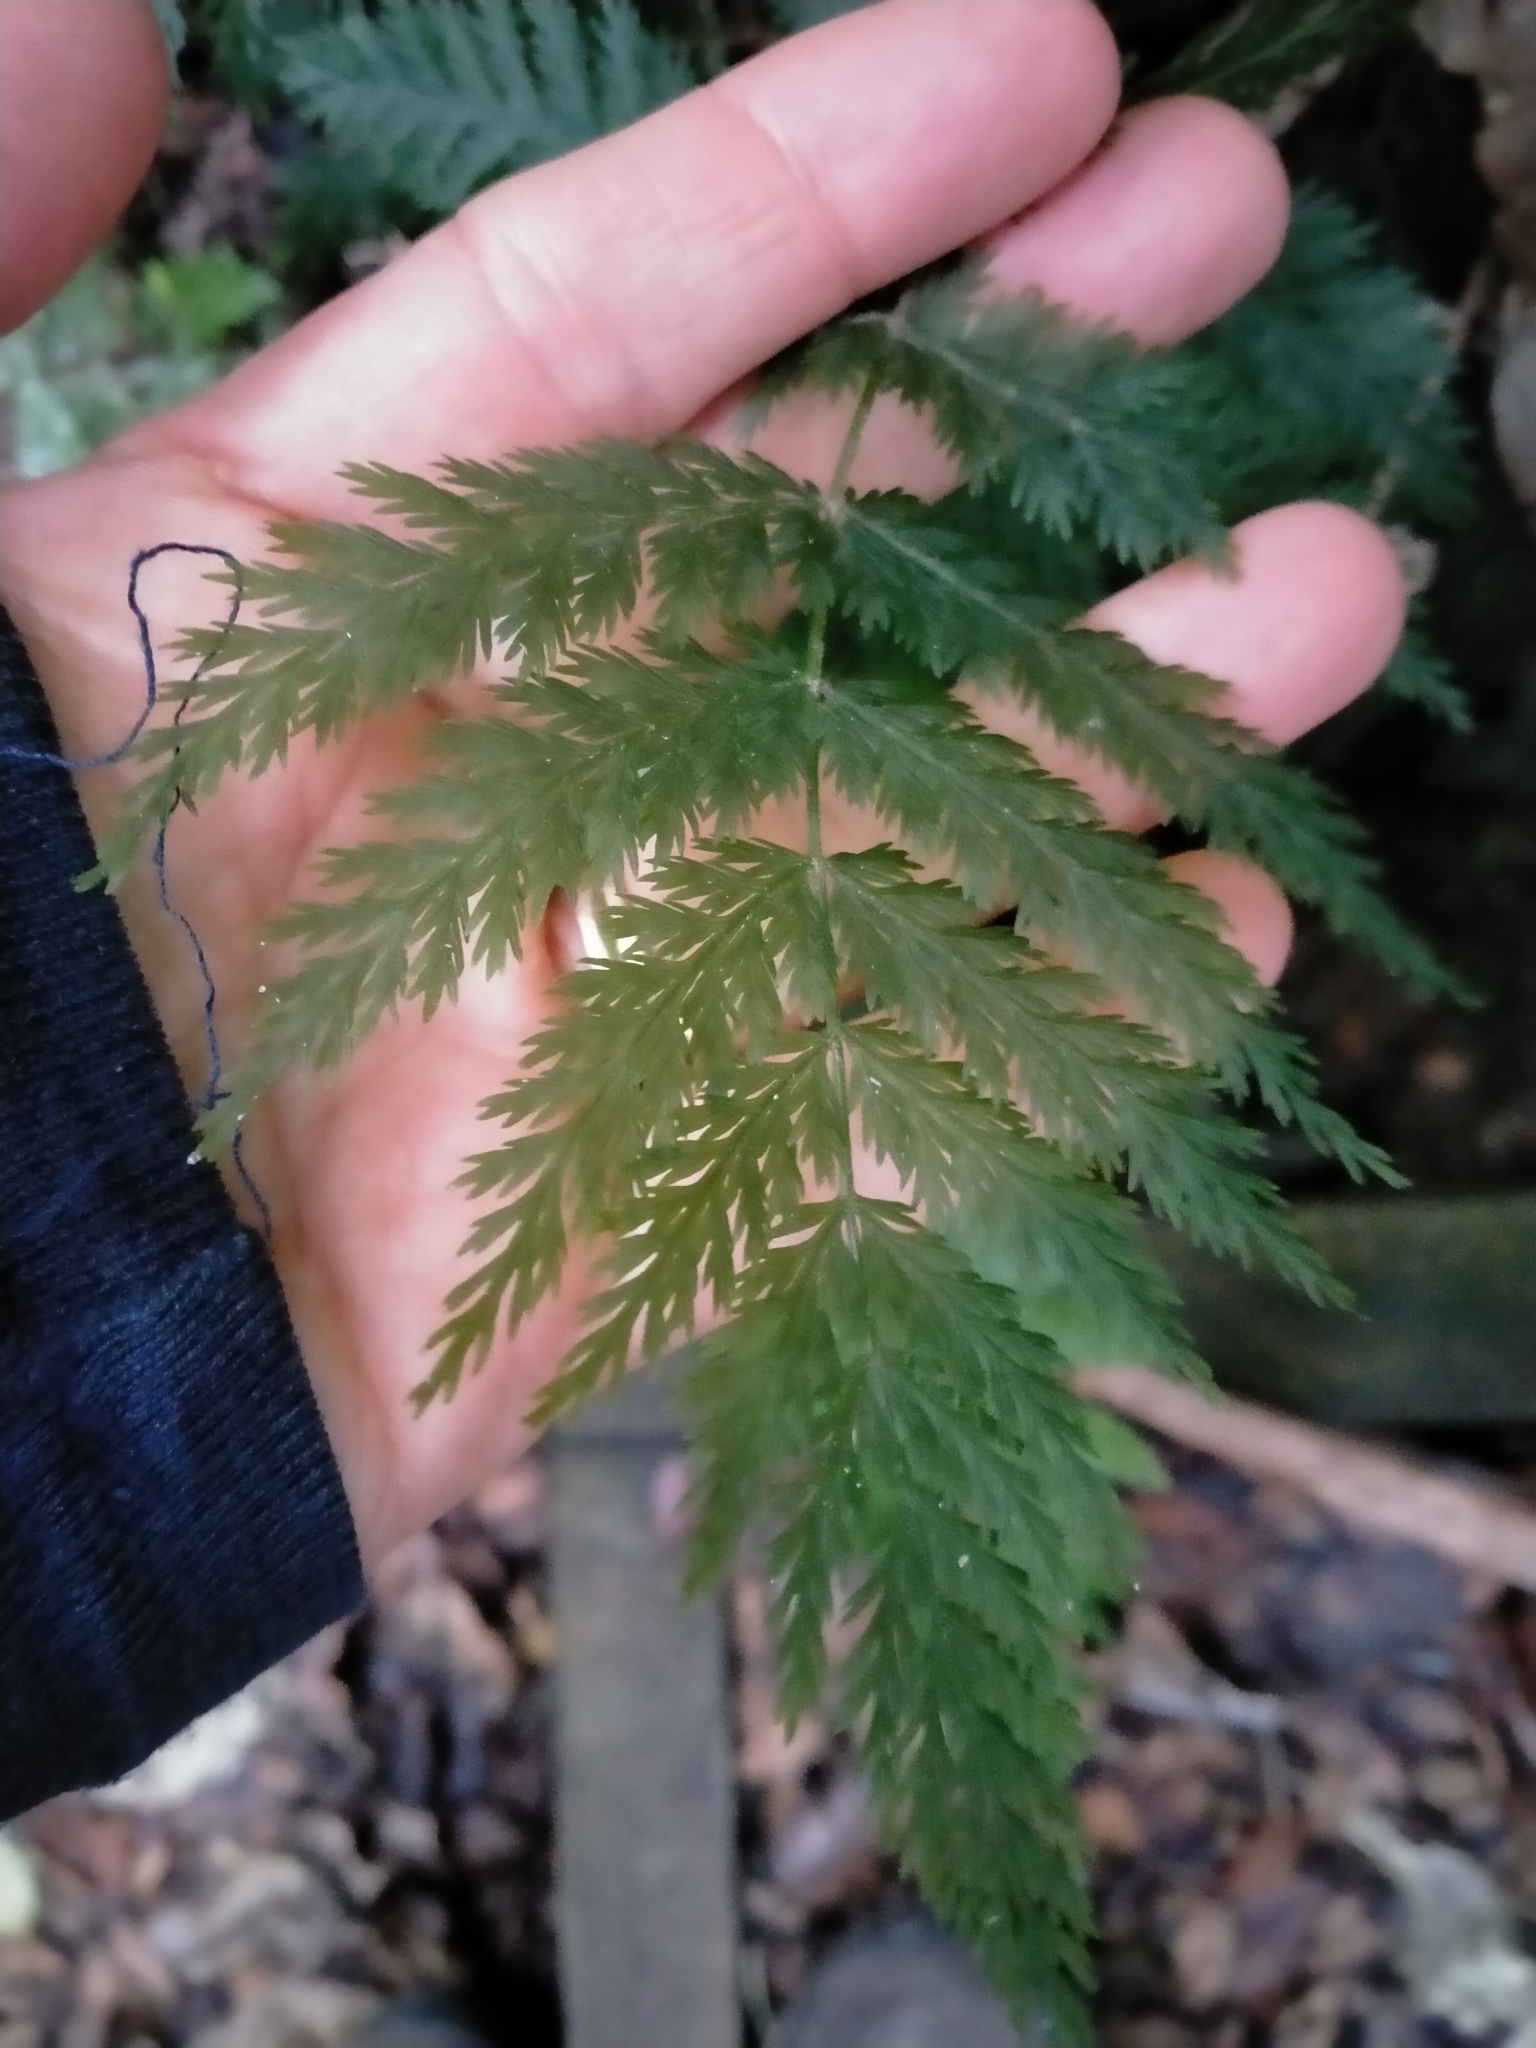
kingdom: Plantae
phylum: Tracheophyta
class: Polypodiopsida
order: Osmundales
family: Osmundaceae
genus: Leptopteris
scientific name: Leptopteris hymenophylloides
